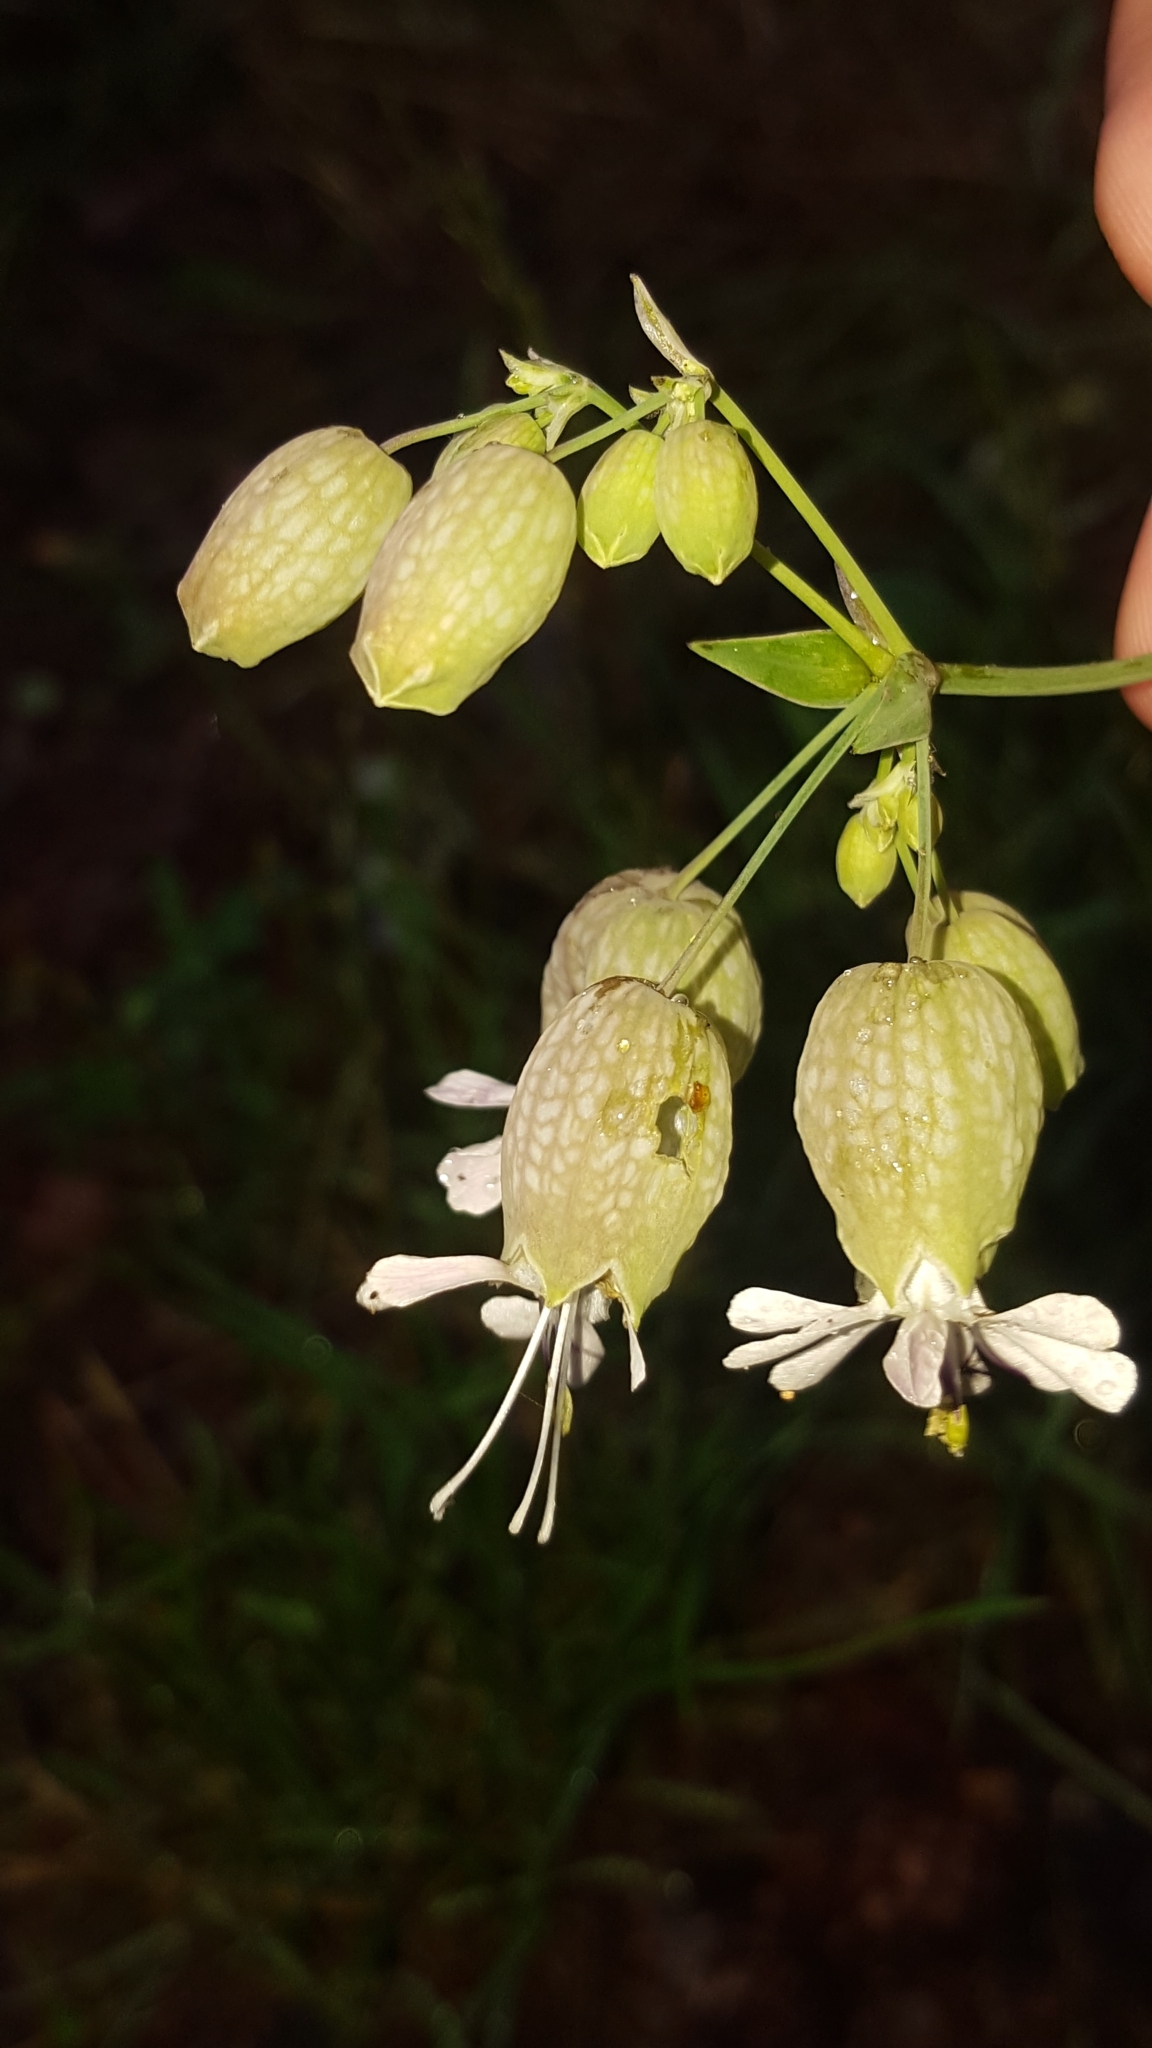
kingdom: Plantae
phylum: Tracheophyta
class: Magnoliopsida
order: Caryophyllales
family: Caryophyllaceae
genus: Silene
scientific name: Silene vulgaris
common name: Bladder campion
